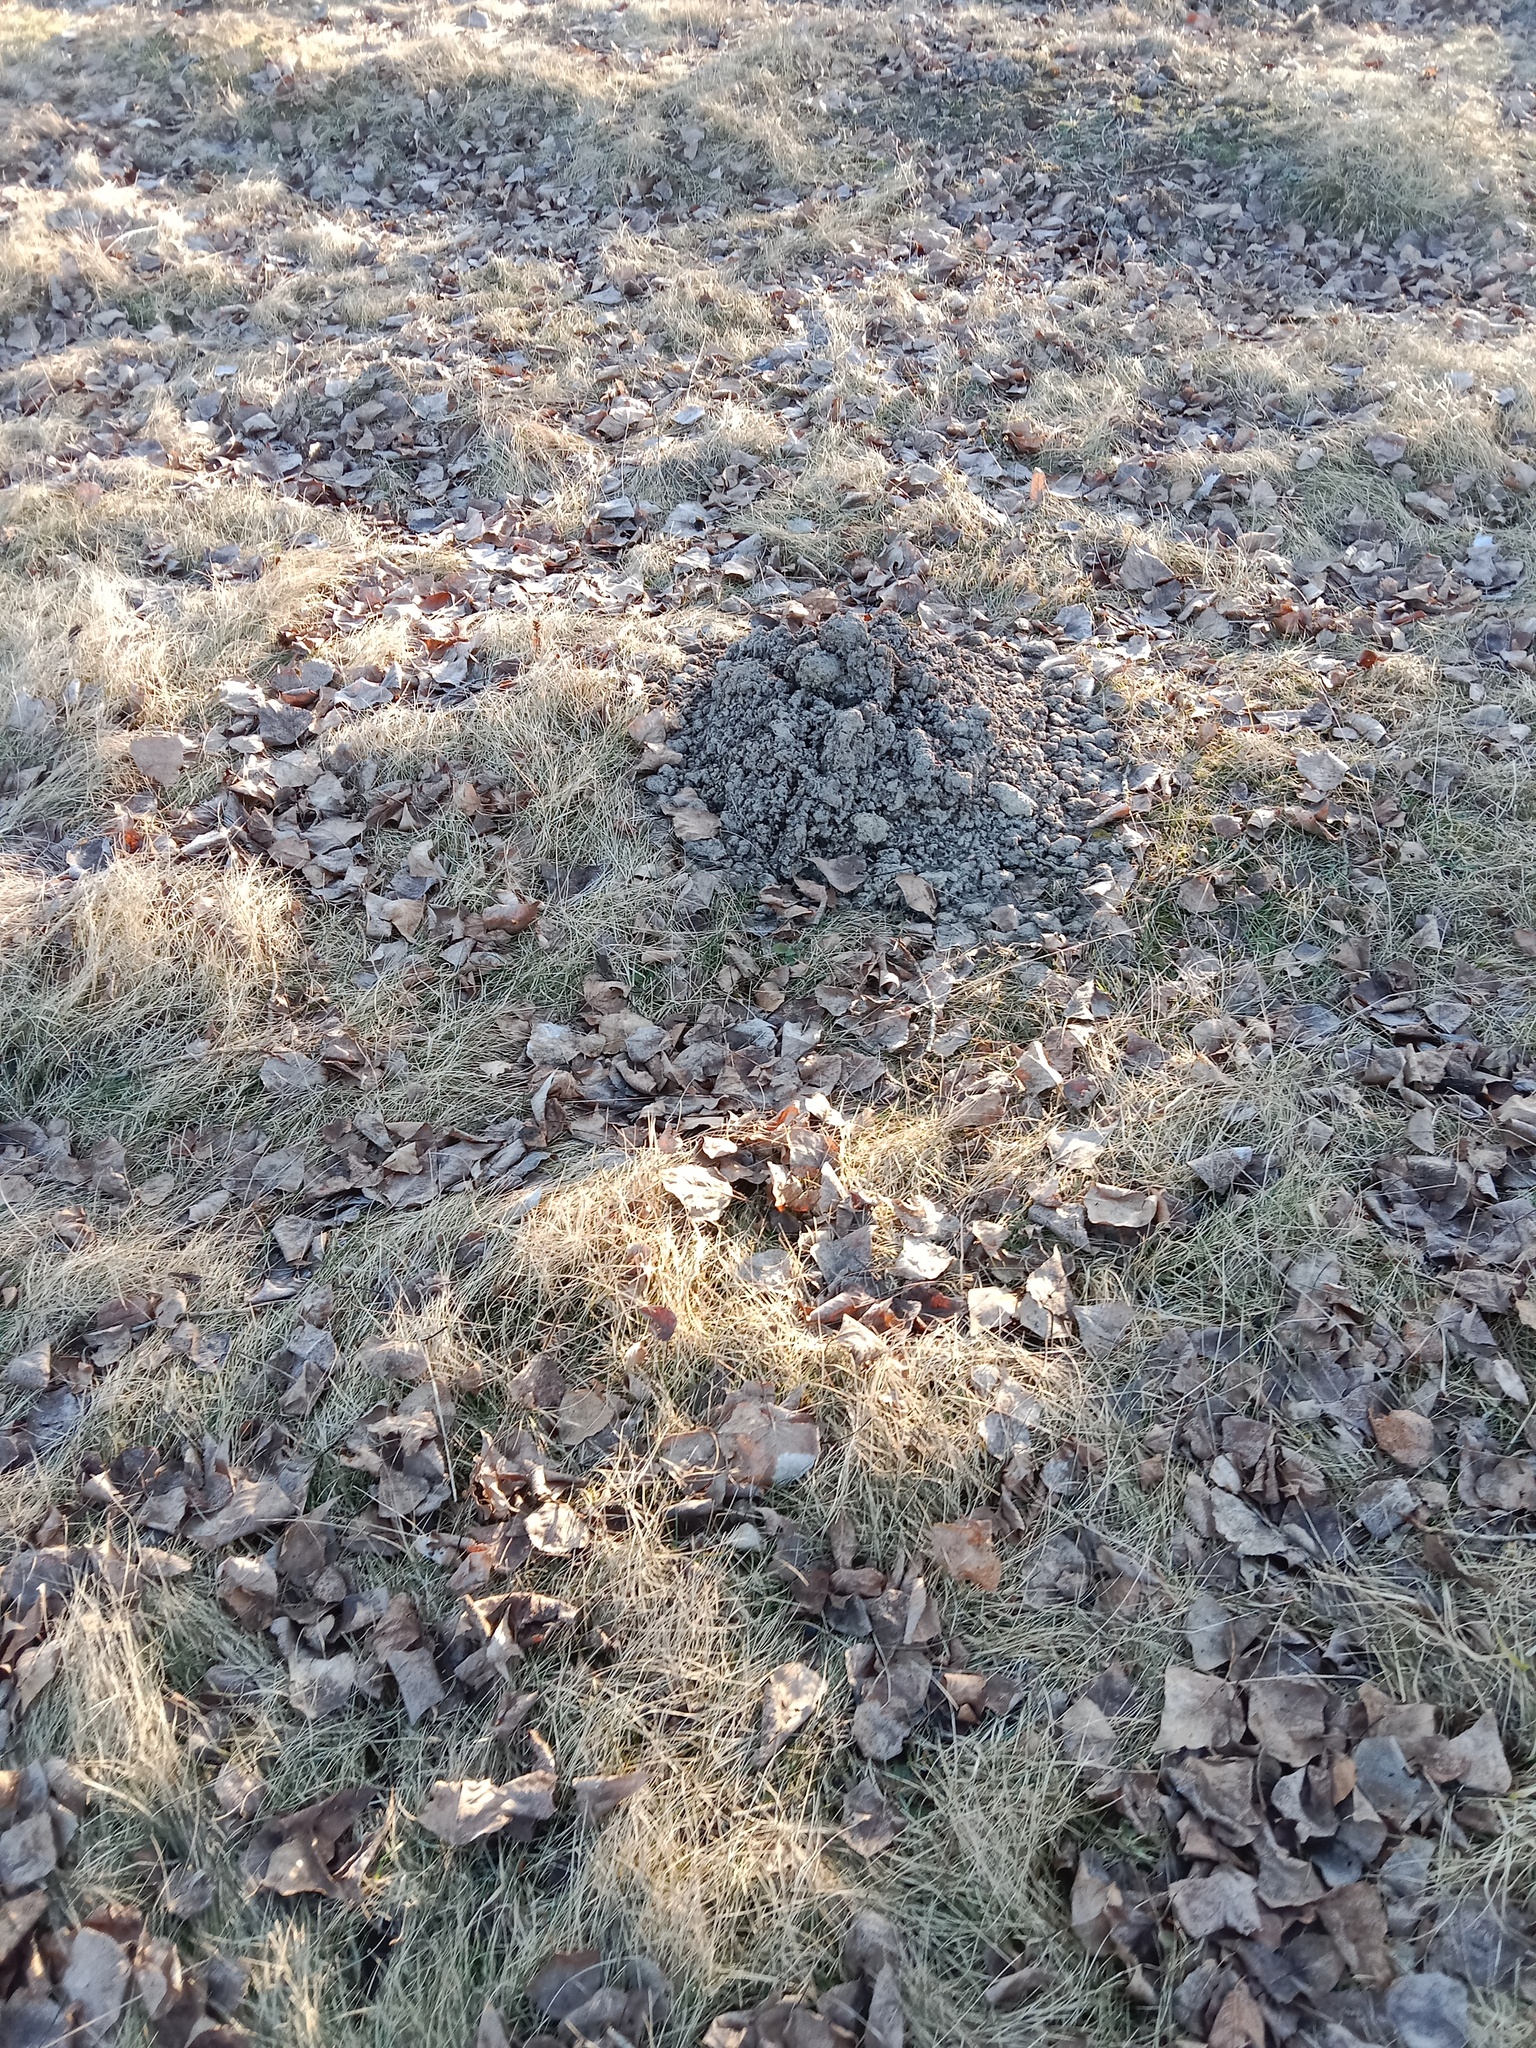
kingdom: Animalia
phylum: Chordata
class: Mammalia
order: Soricomorpha
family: Talpidae
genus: Talpa
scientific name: Talpa europaea
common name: European mole
